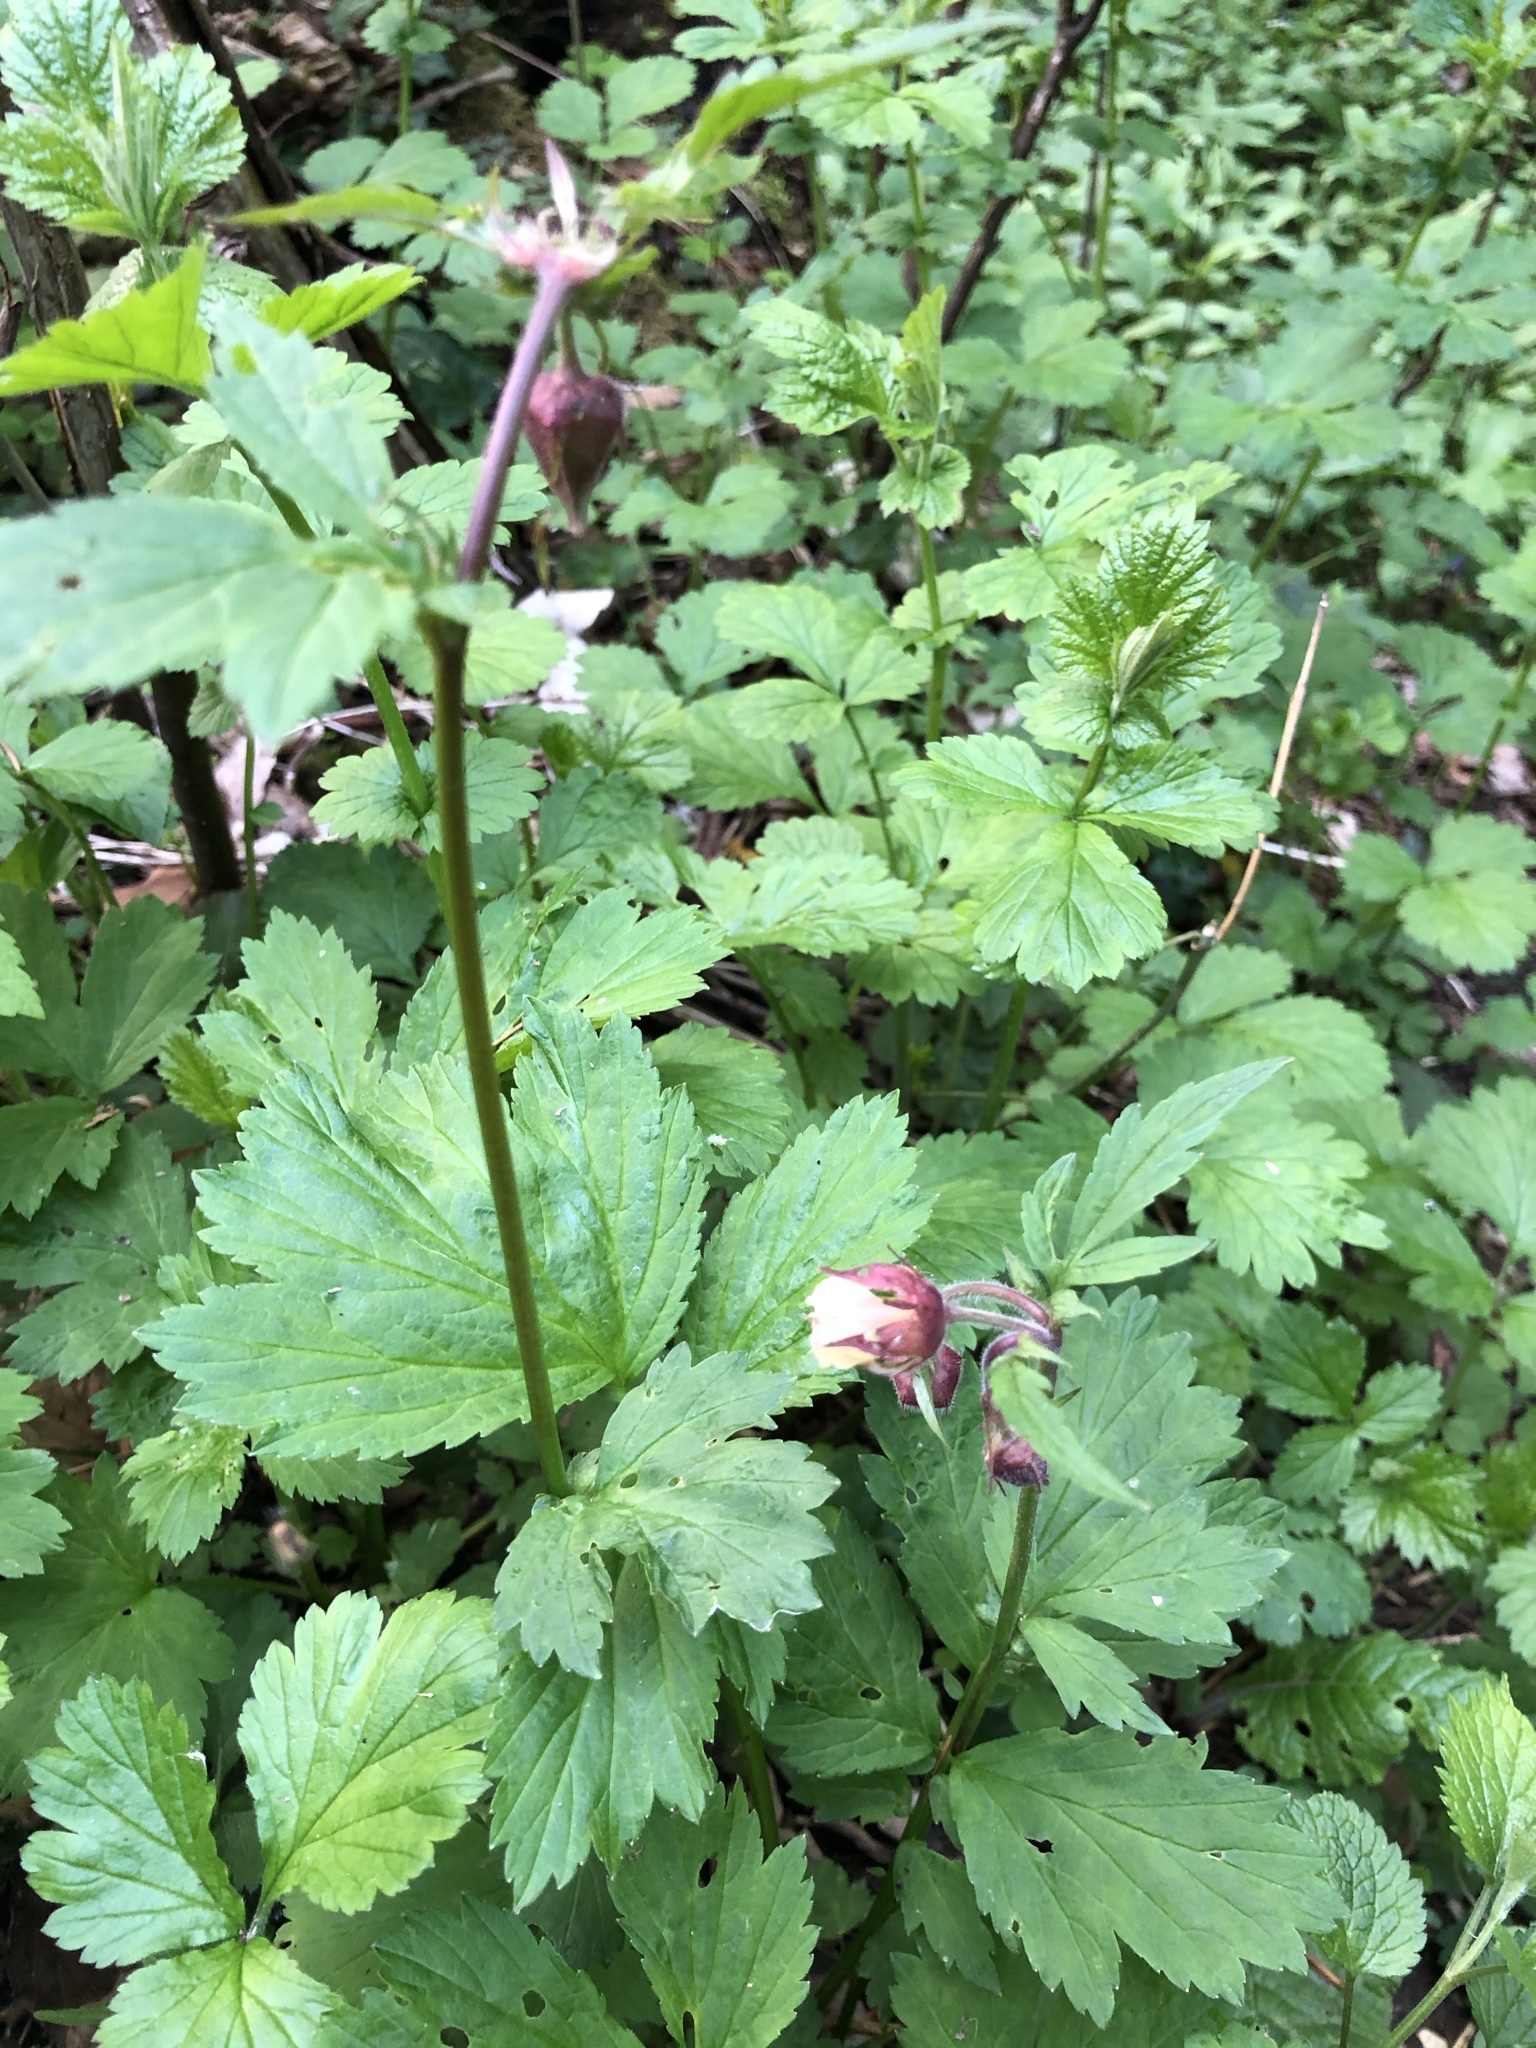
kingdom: Plantae
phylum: Tracheophyta
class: Magnoliopsida
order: Rosales
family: Rosaceae
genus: Geum
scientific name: Geum rivale
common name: Water avens
